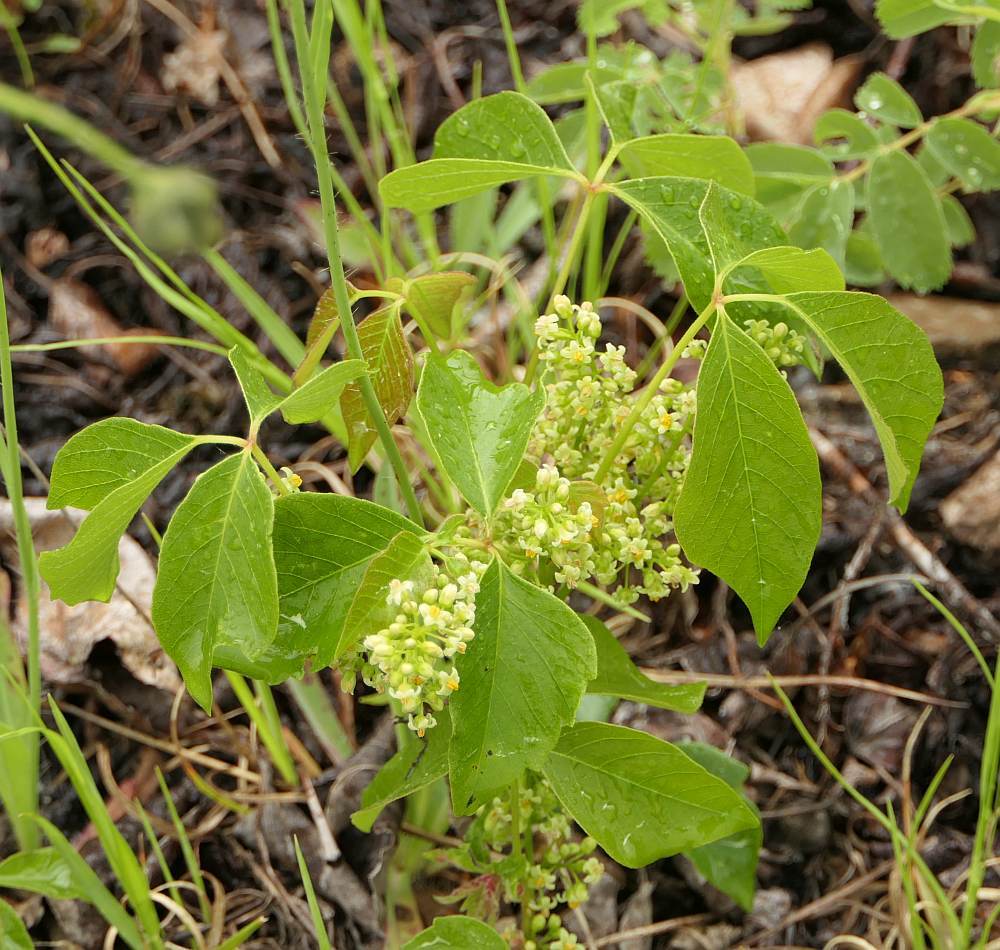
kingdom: Plantae
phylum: Tracheophyta
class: Magnoliopsida
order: Sapindales
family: Anacardiaceae
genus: Toxicodendron
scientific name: Toxicodendron rydbergii
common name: Rydberg's poison-ivy
